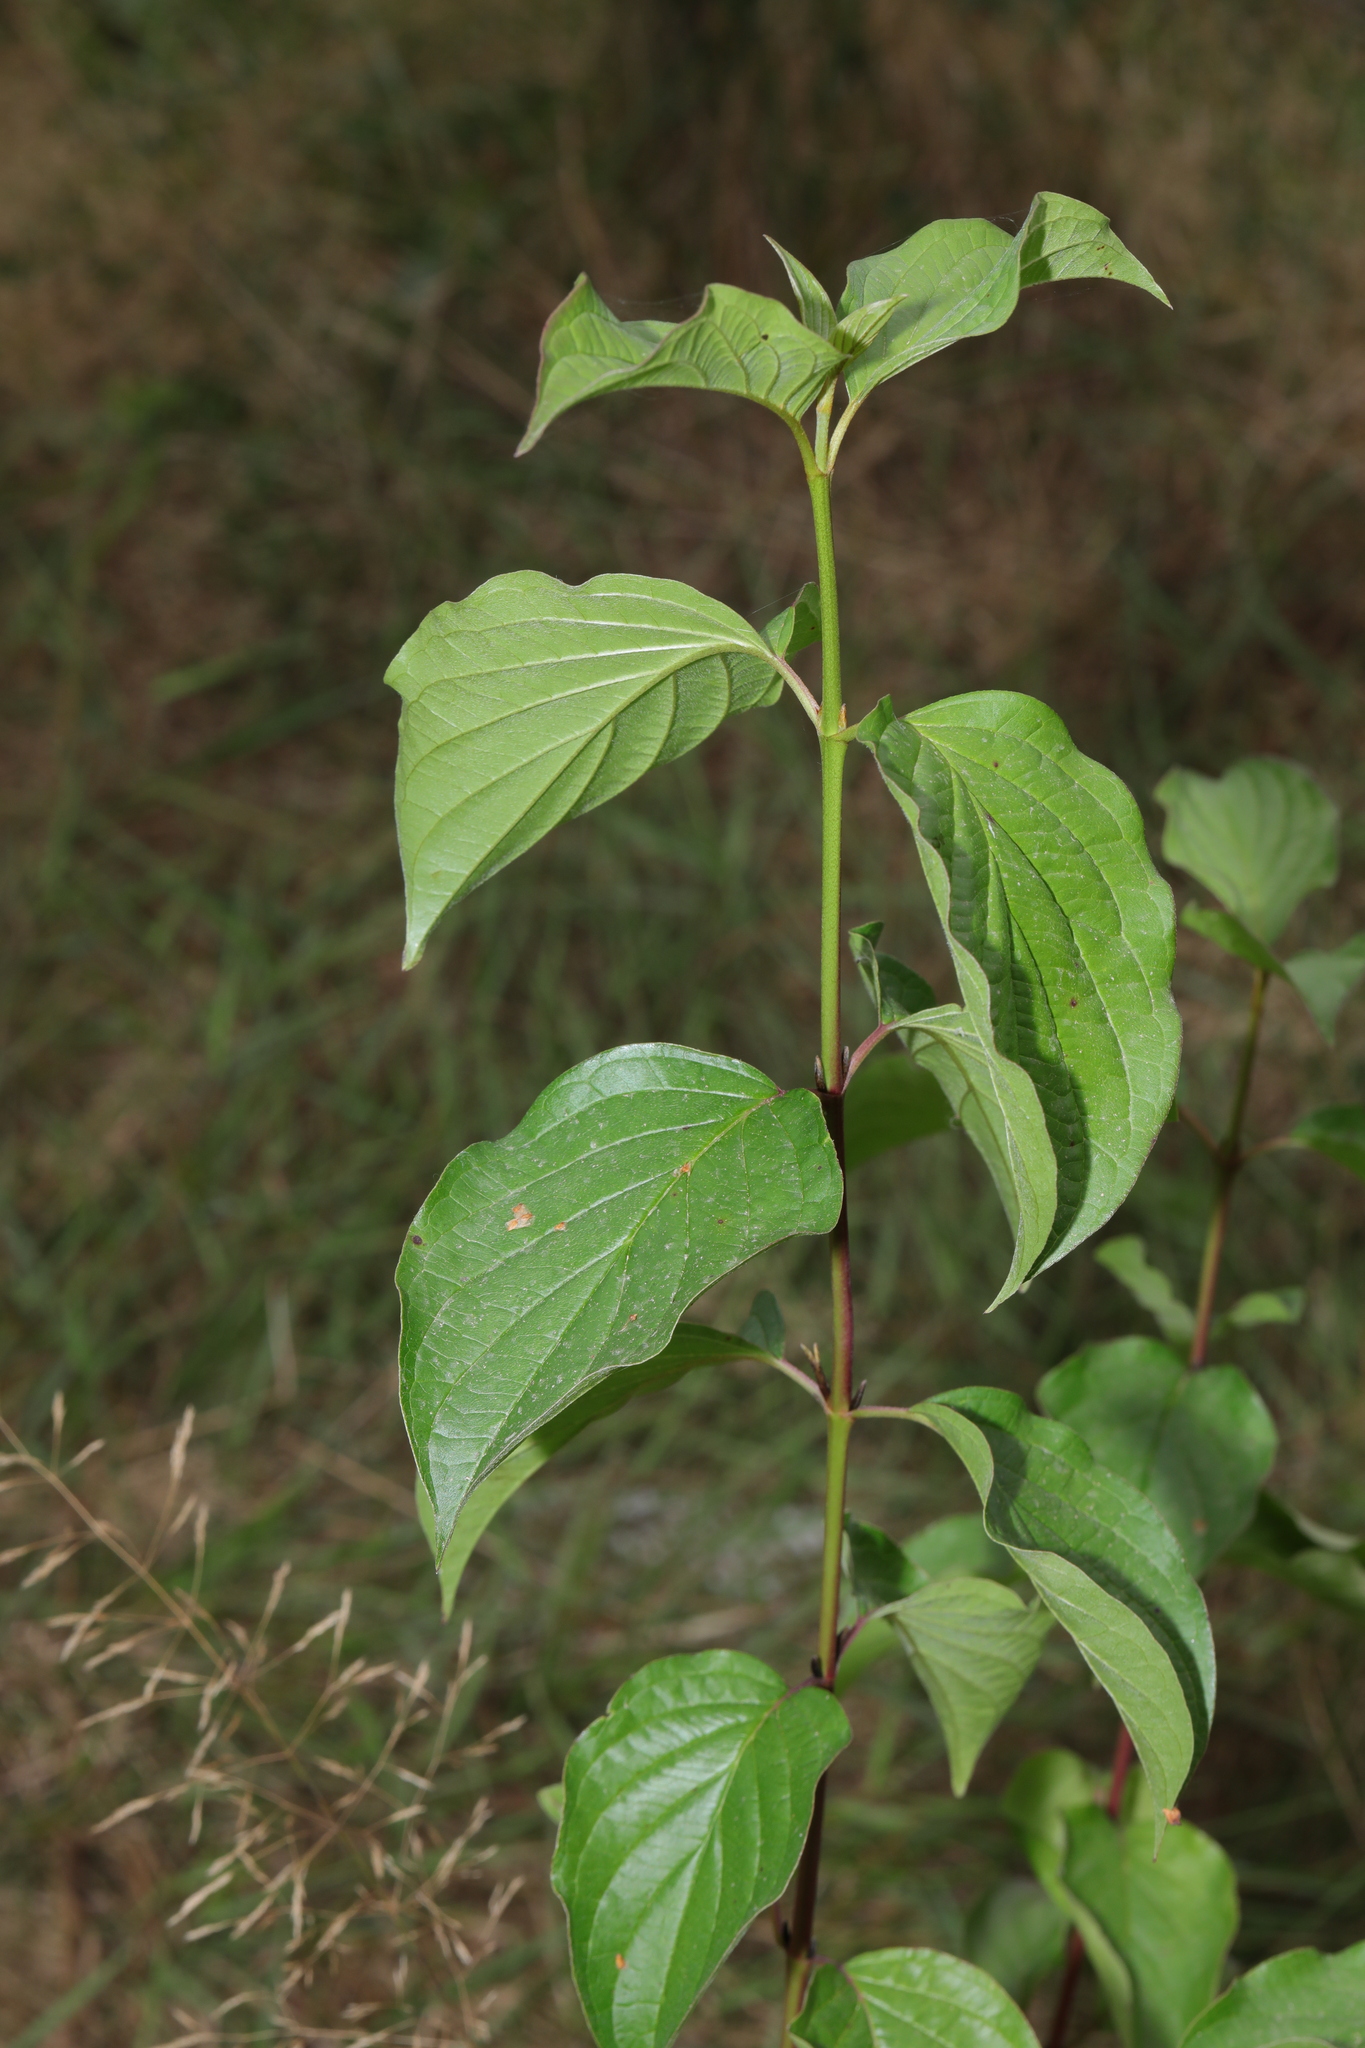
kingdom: Plantae
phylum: Tracheophyta
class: Magnoliopsida
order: Cornales
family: Cornaceae
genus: Cornus
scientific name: Cornus sanguinea
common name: Dogwood
